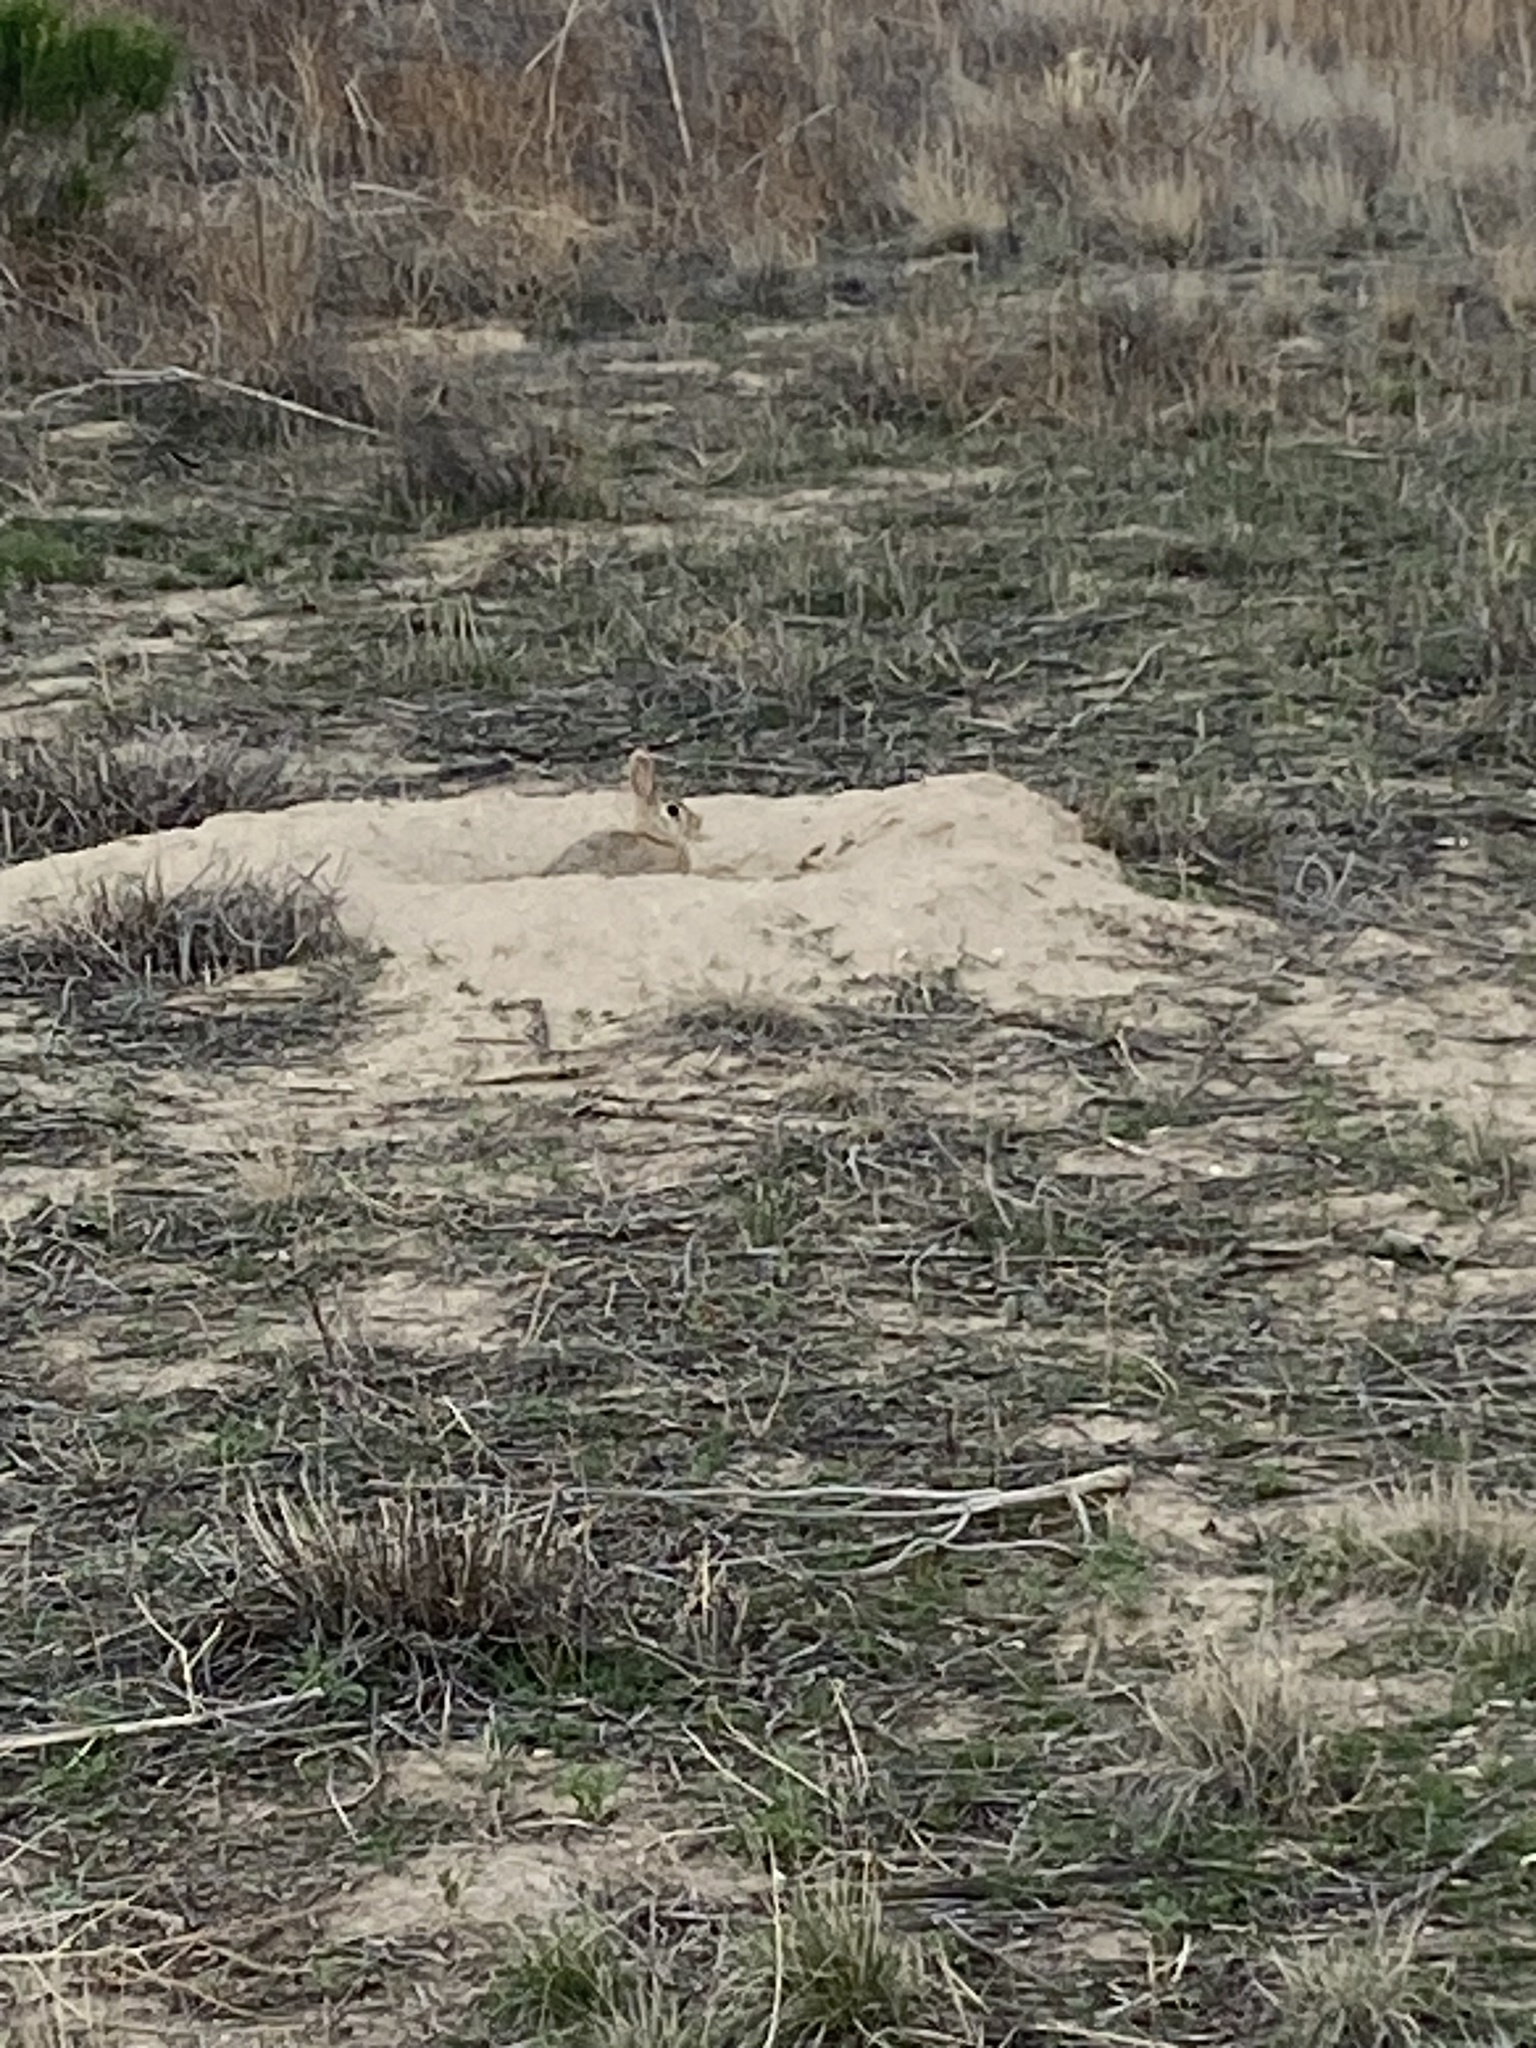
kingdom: Animalia
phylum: Chordata
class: Mammalia
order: Lagomorpha
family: Leporidae
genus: Sylvilagus
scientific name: Sylvilagus audubonii
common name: Desert cottontail
